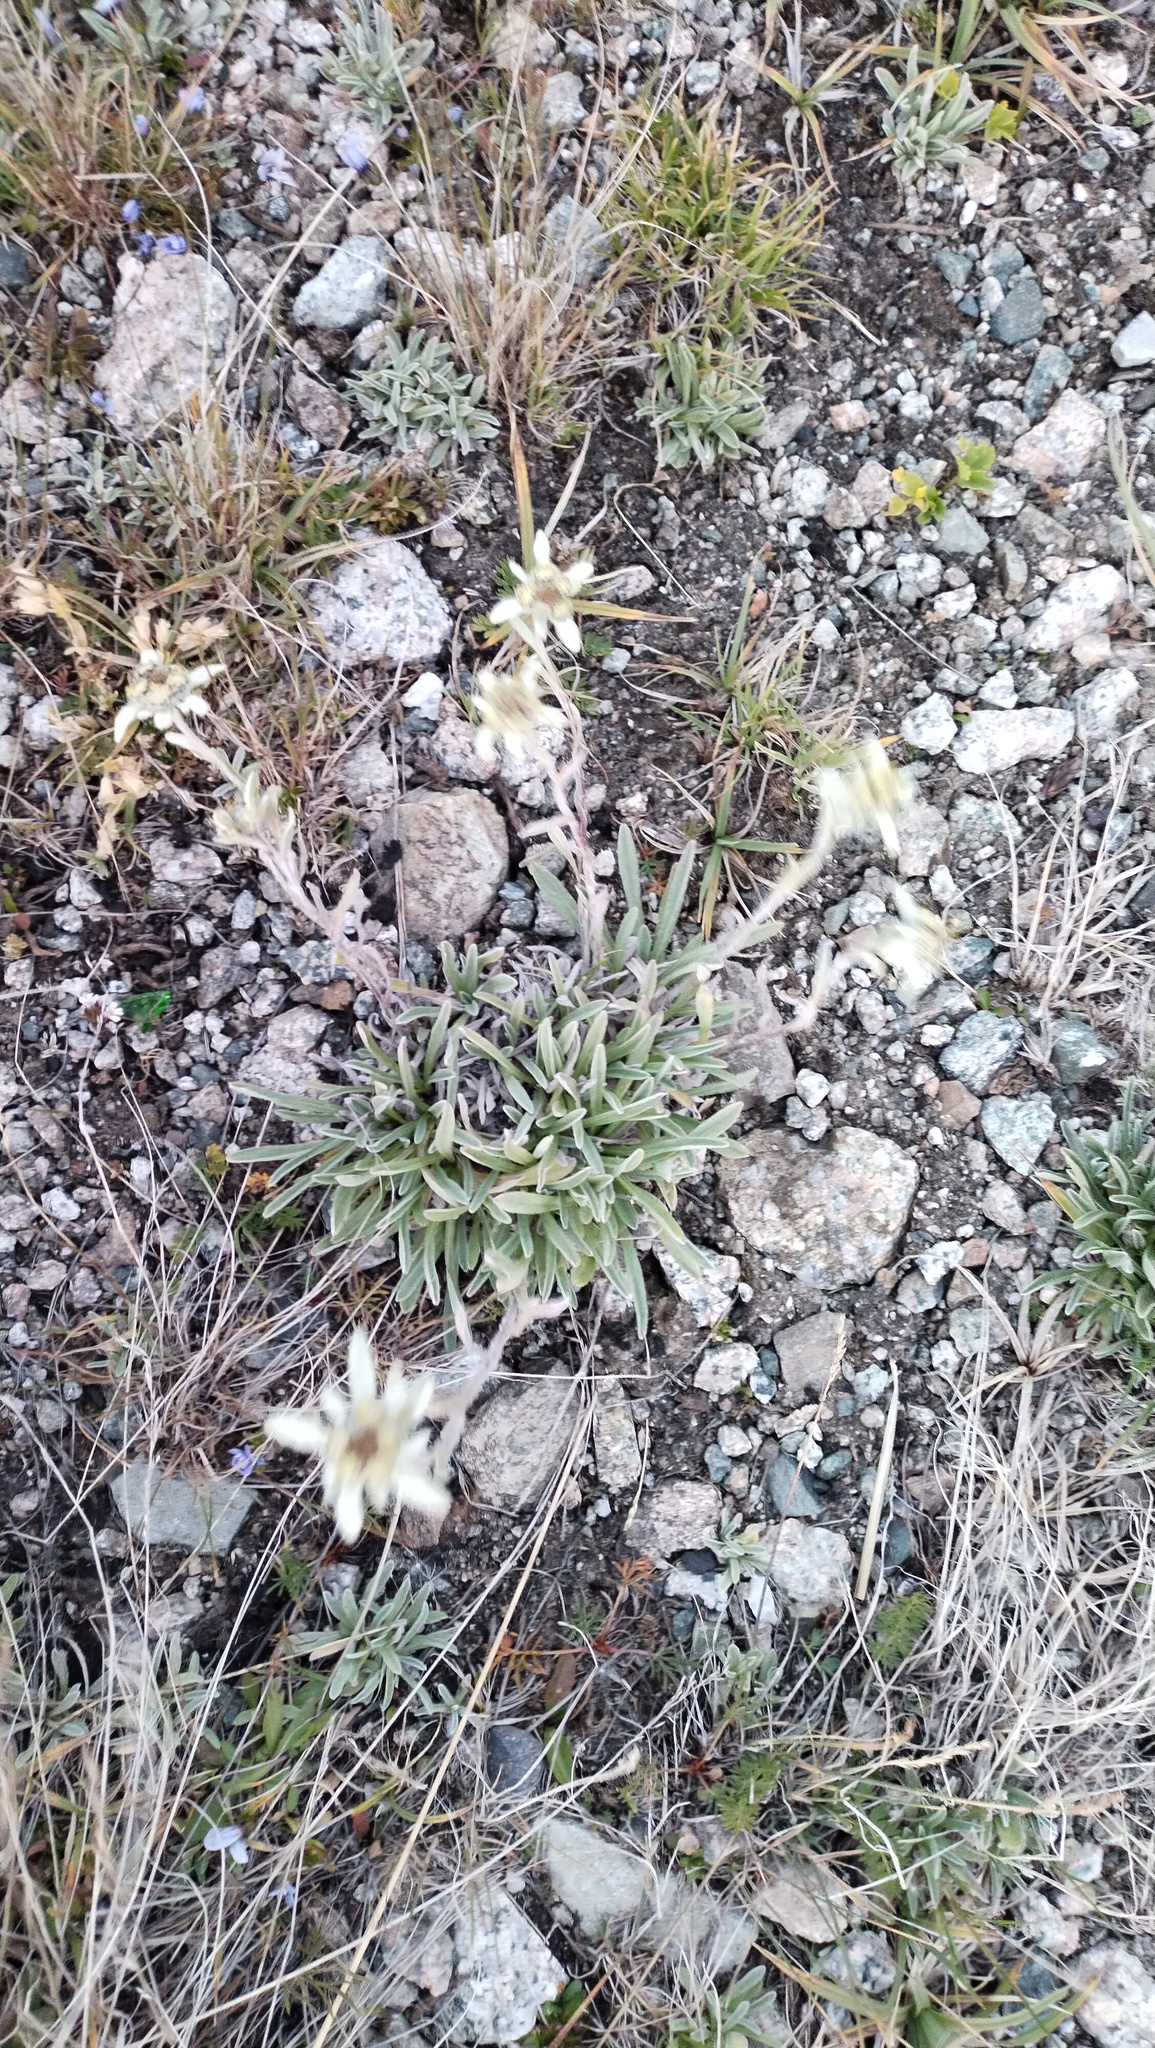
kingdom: Plantae
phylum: Tracheophyta
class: Magnoliopsida
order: Asterales
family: Asteraceae
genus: Leontopodium
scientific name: Leontopodium leontopodinum
